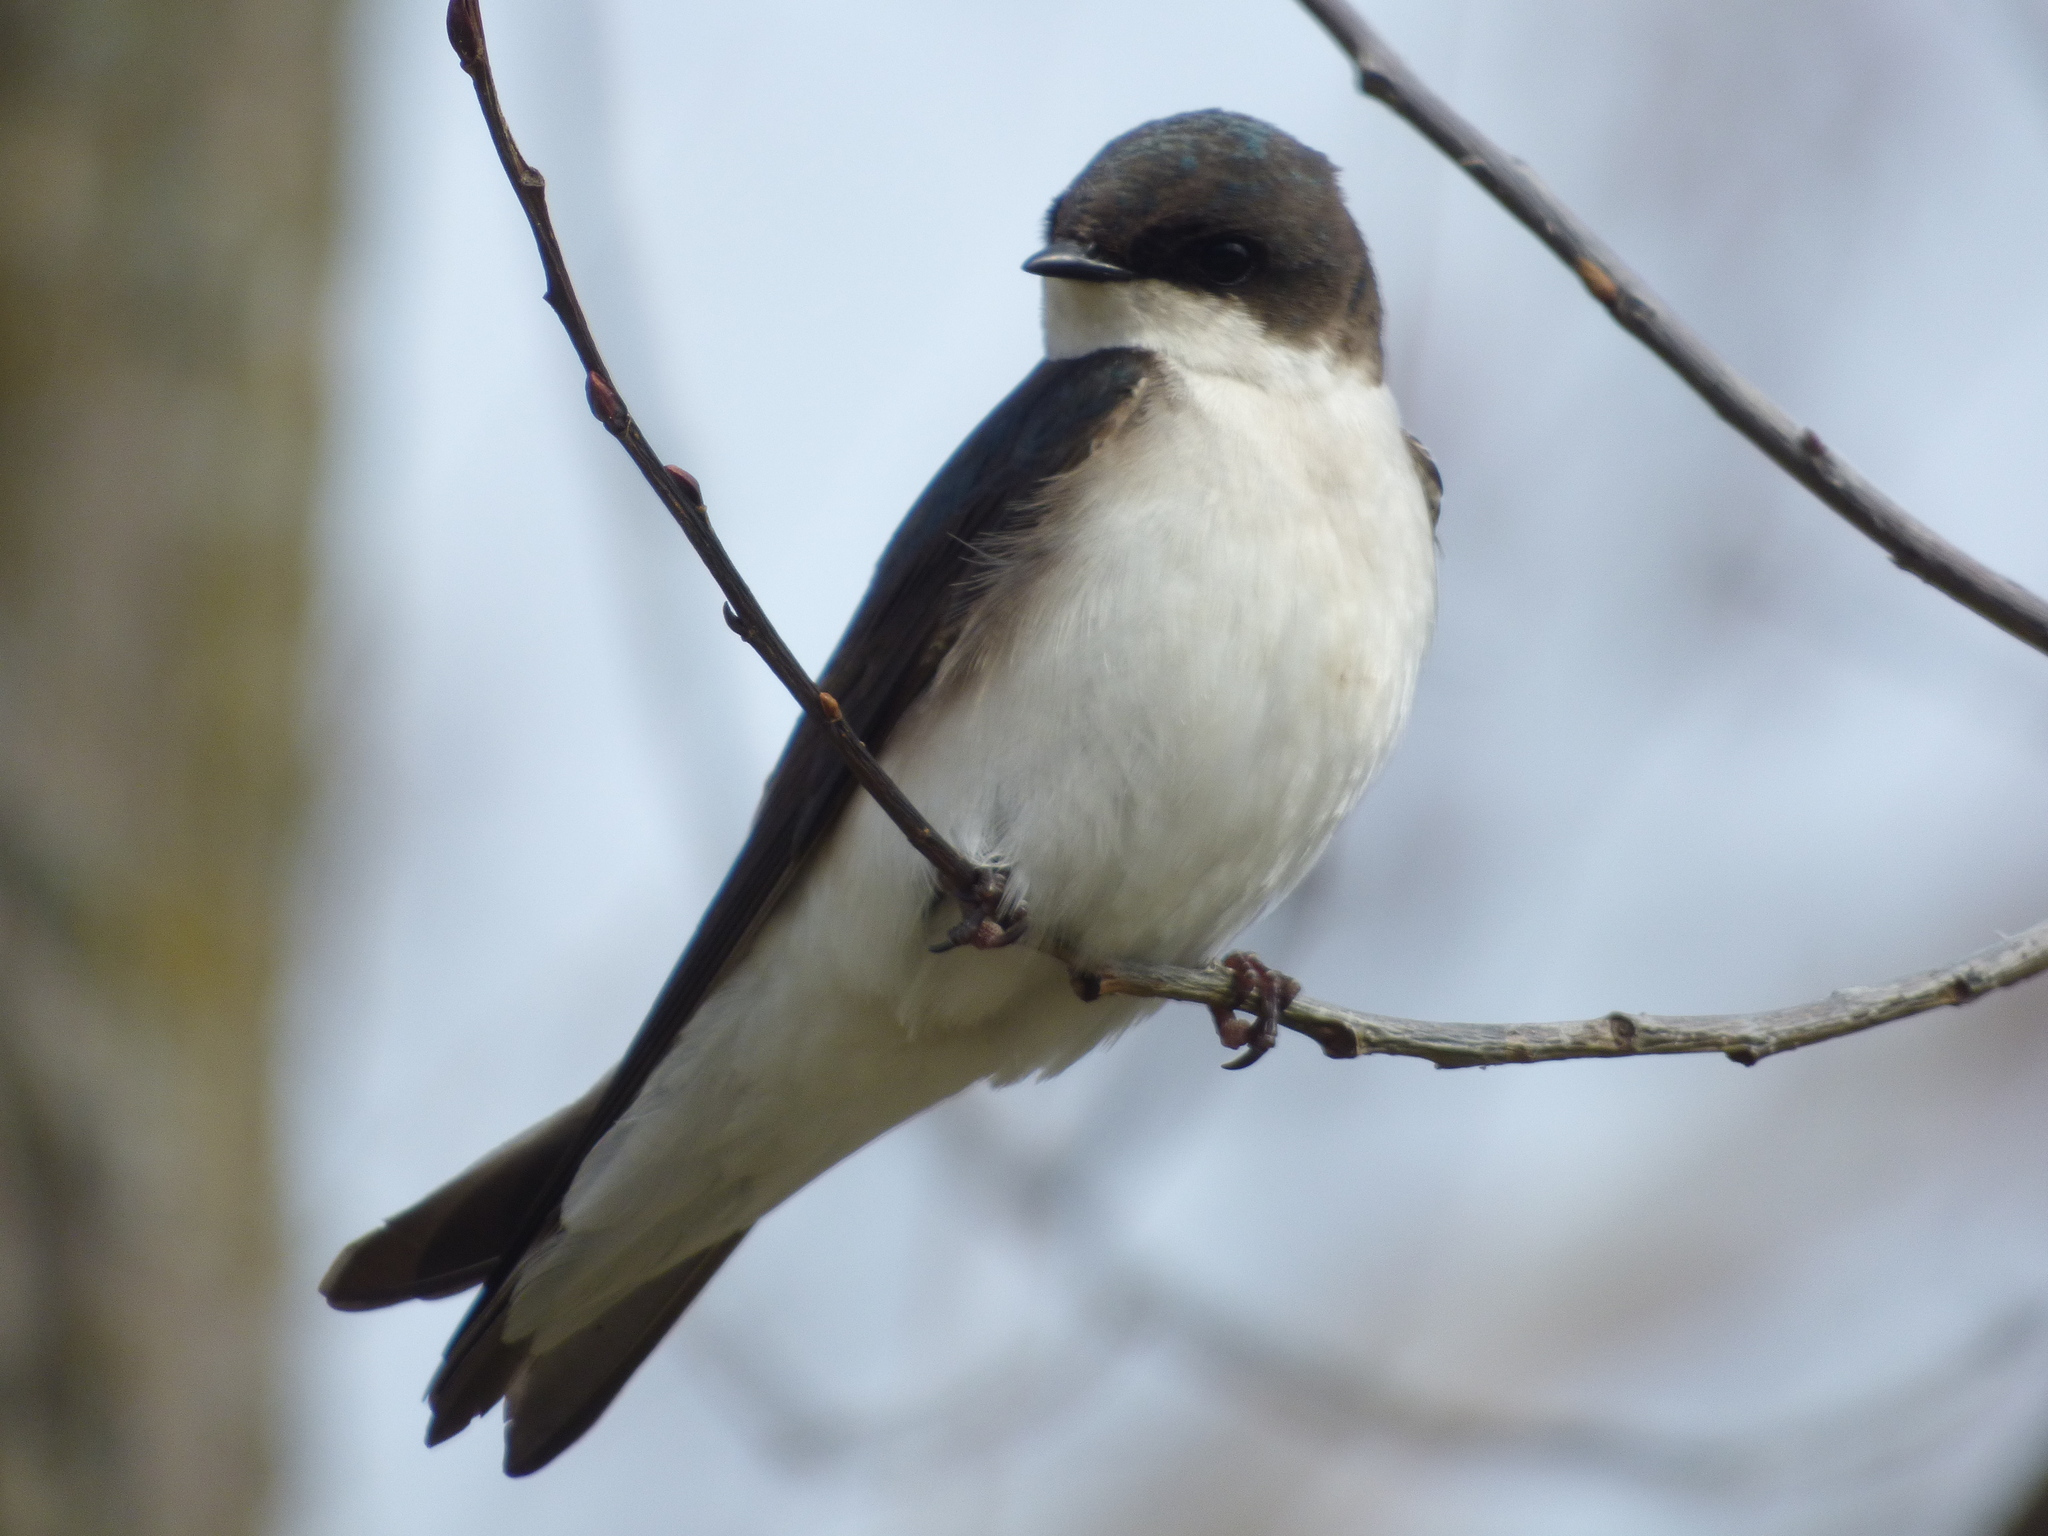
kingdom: Animalia
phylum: Chordata
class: Aves
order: Passeriformes
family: Hirundinidae
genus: Tachycineta
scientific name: Tachycineta bicolor
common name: Tree swallow
